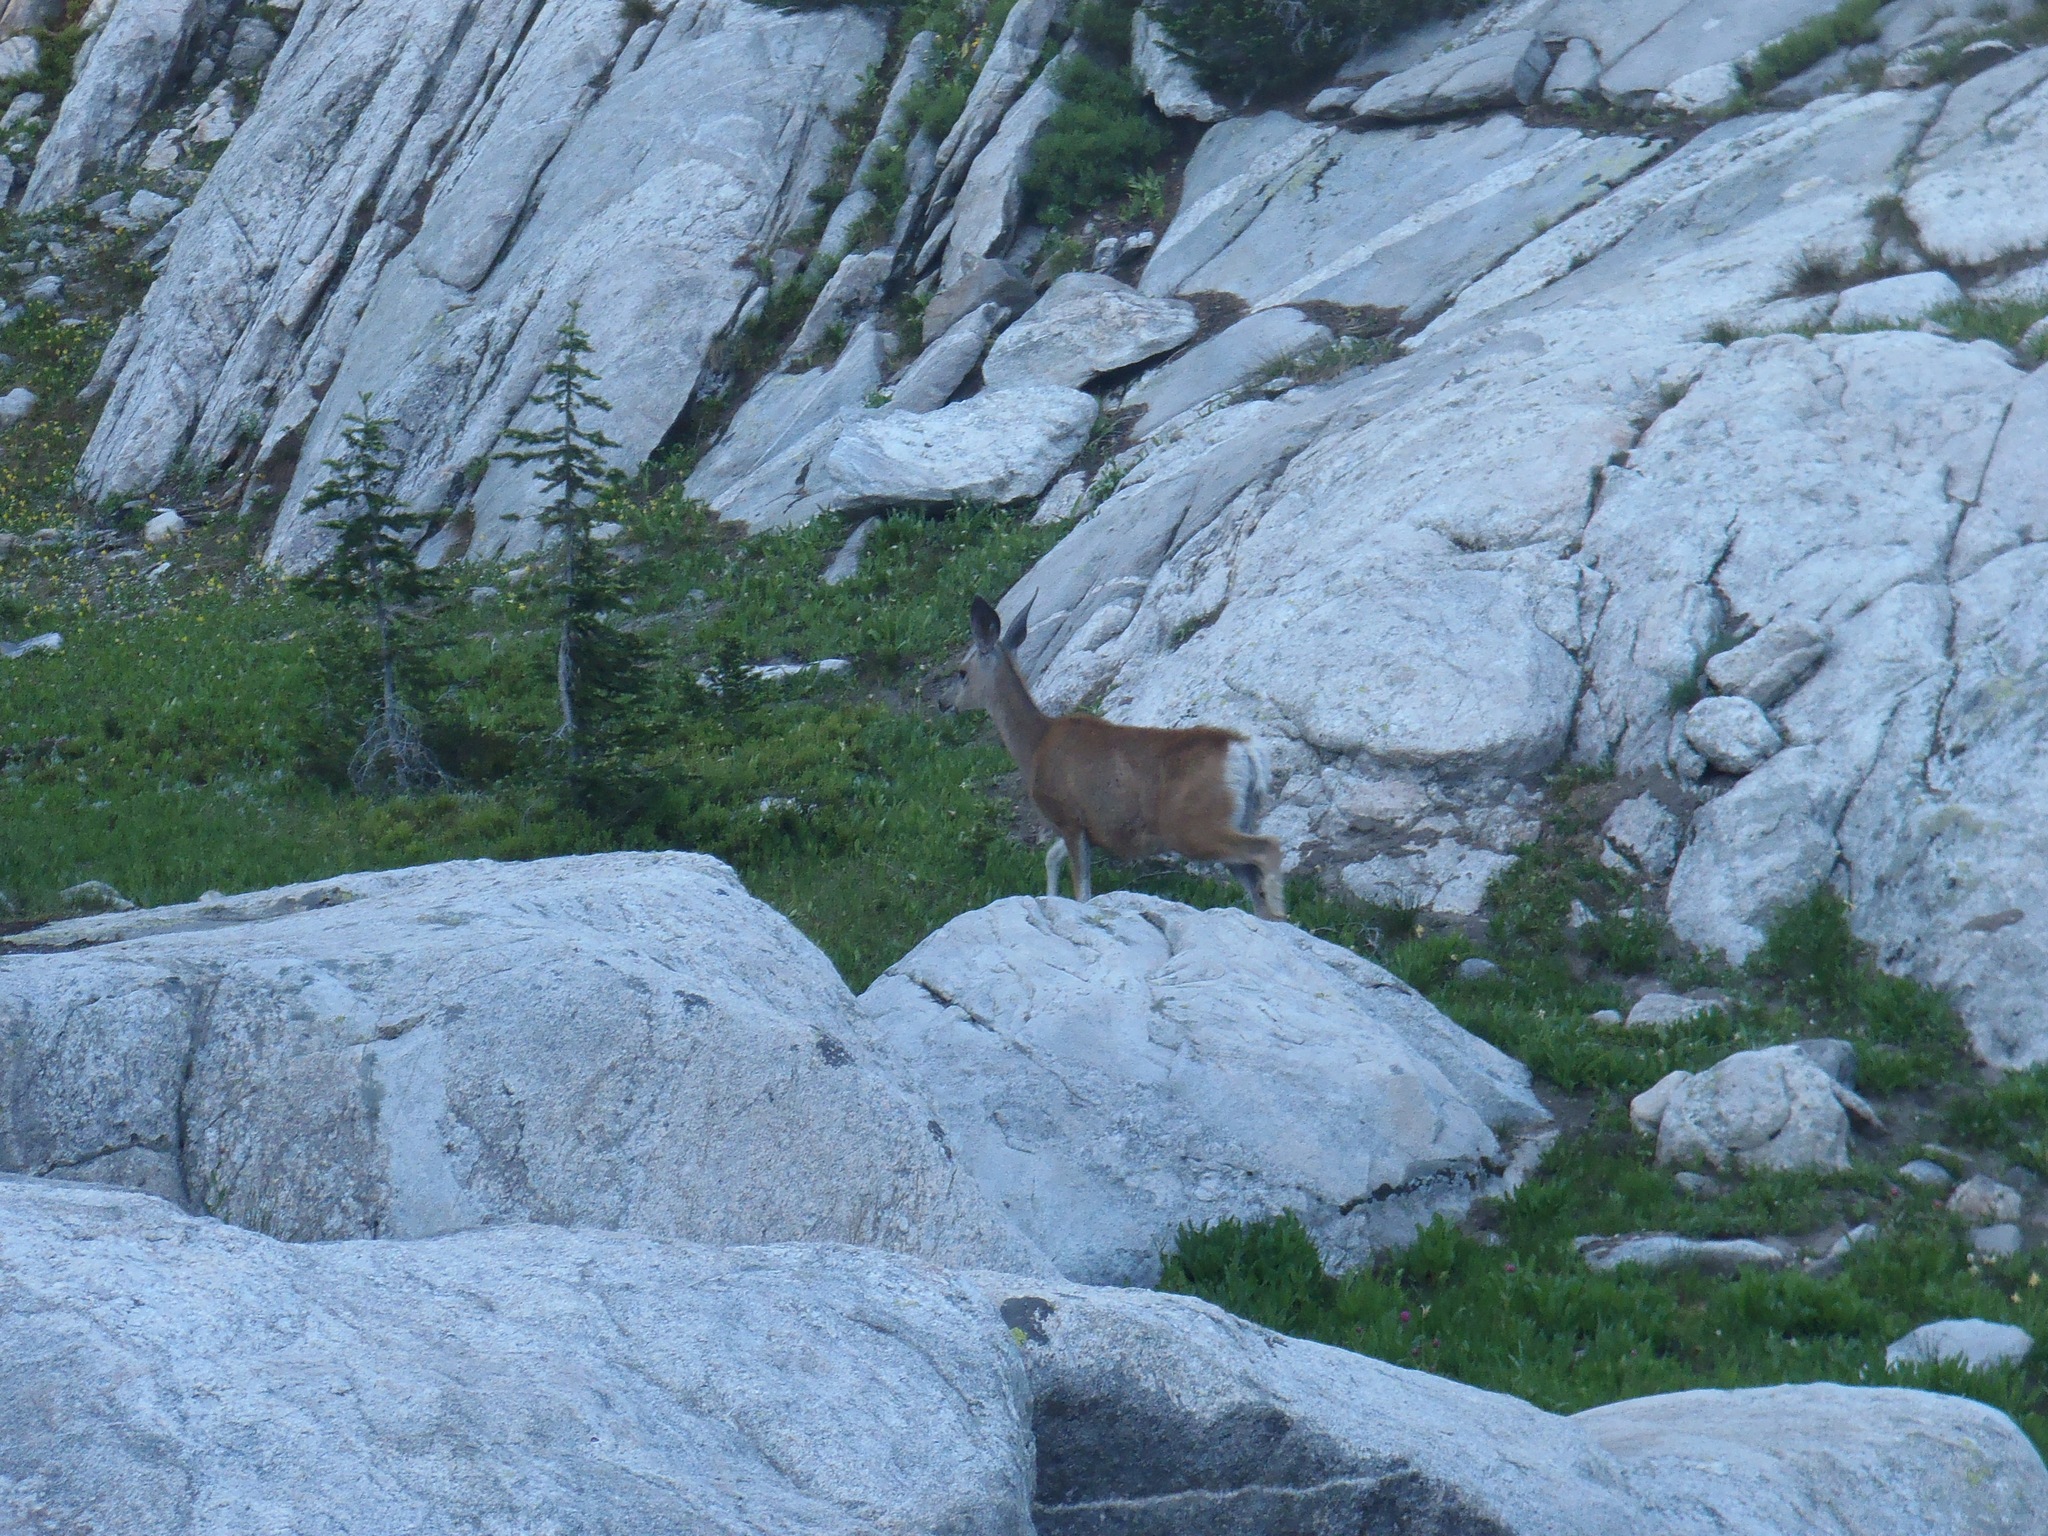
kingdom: Animalia
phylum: Chordata
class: Mammalia
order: Artiodactyla
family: Cervidae
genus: Odocoileus
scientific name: Odocoileus hemionus
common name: Mule deer
